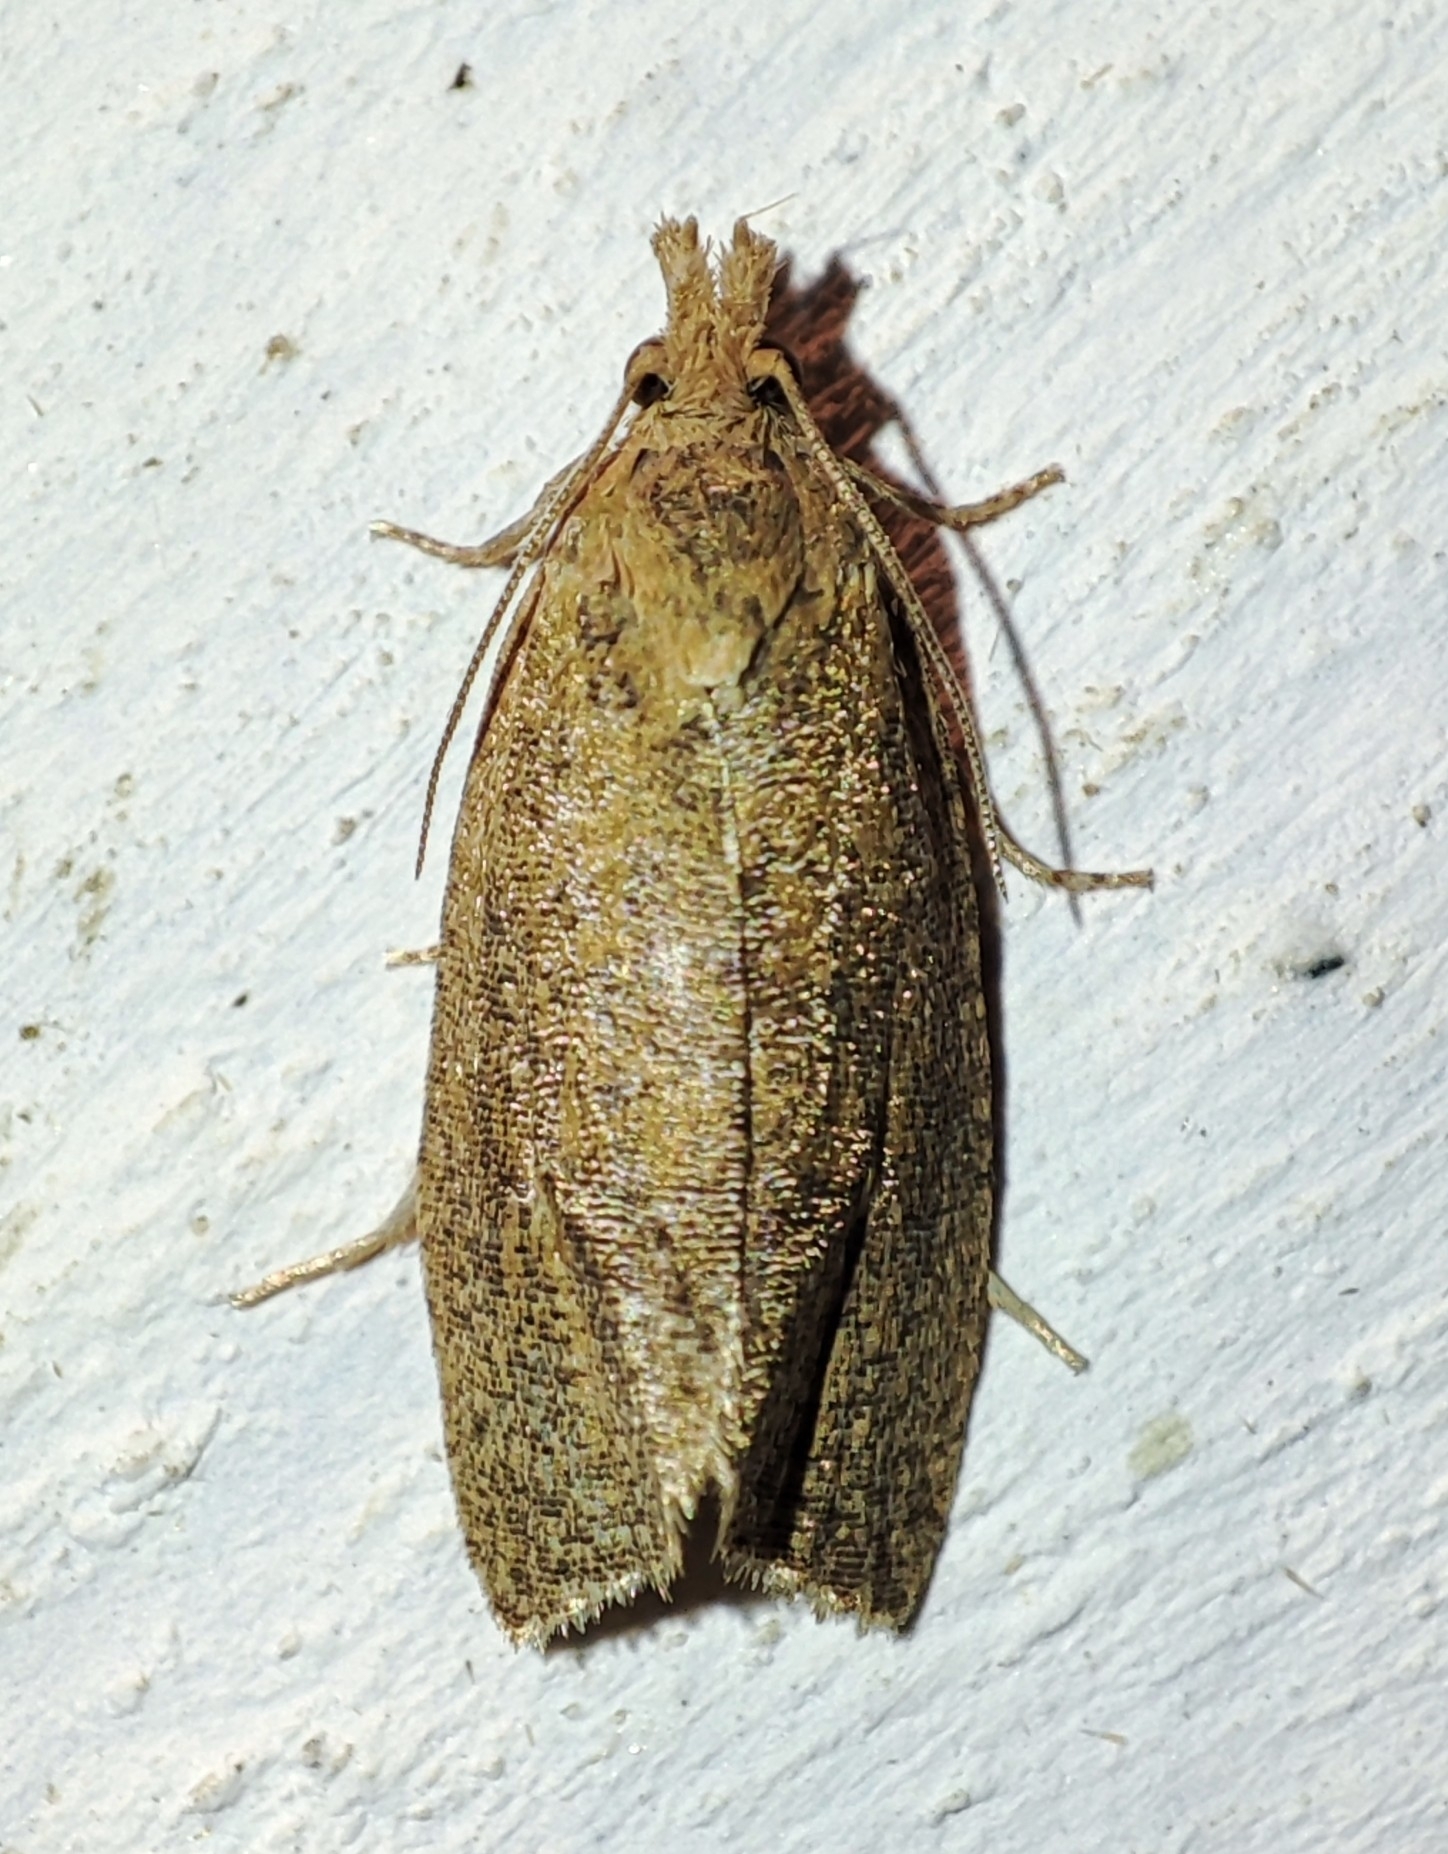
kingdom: Animalia
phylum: Arthropoda
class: Insecta
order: Lepidoptera
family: Tortricidae
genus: Celypha
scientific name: Celypha rufana
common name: Lakes marble
